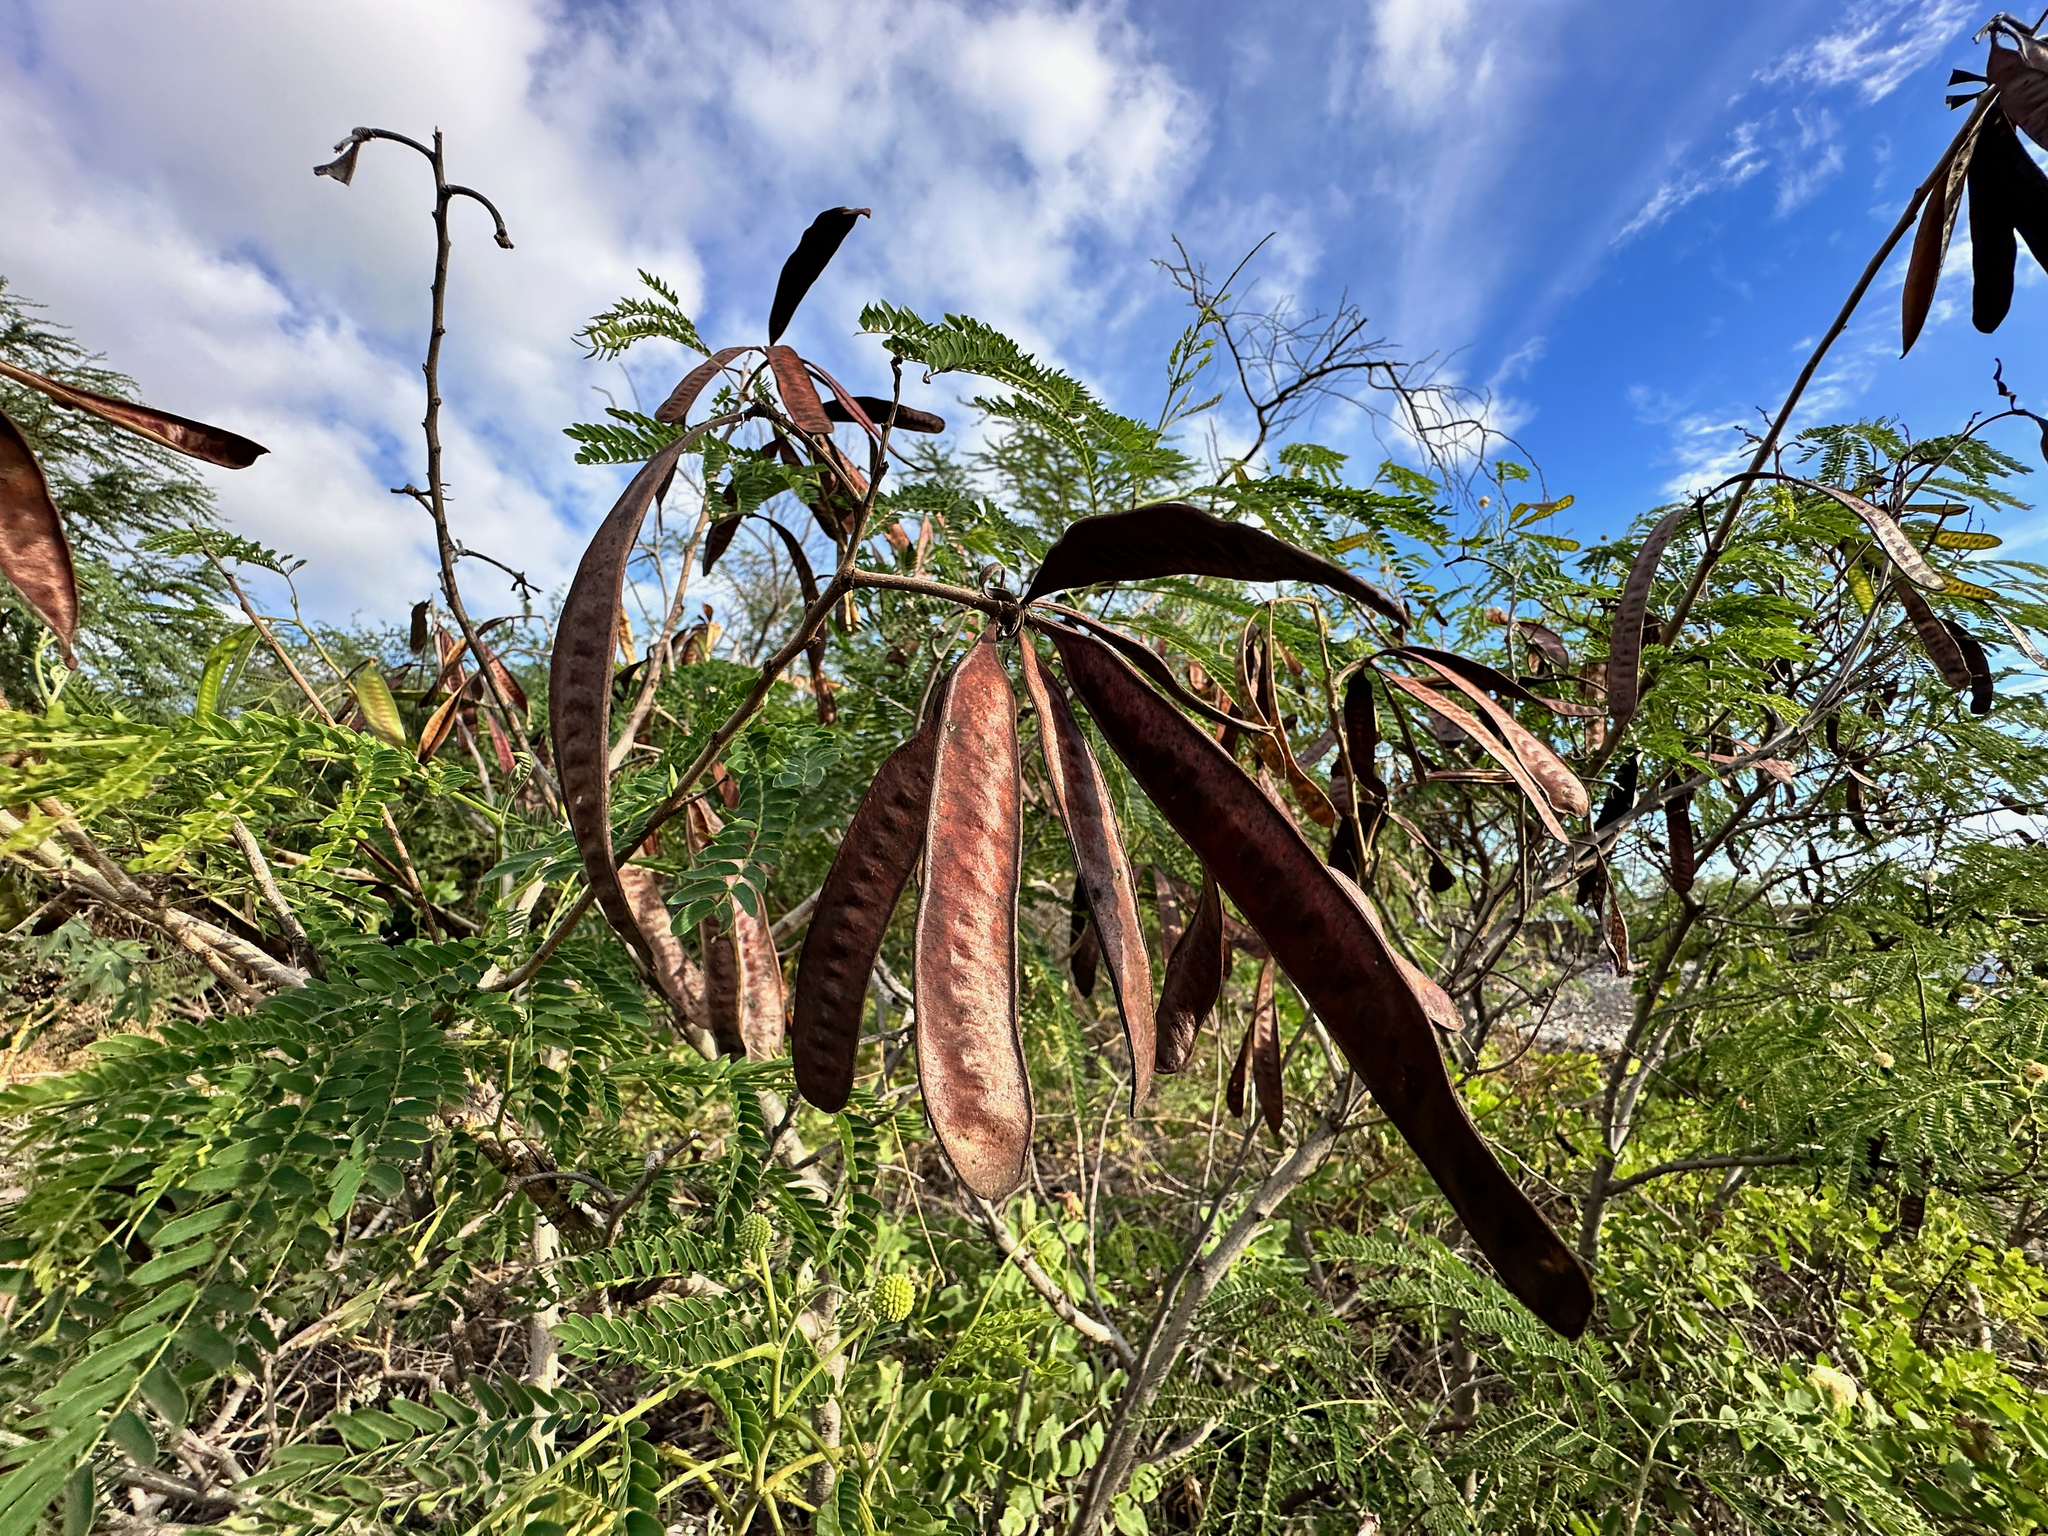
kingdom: Plantae
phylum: Tracheophyta
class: Magnoliopsida
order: Fabales
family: Fabaceae
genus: Leucaena
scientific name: Leucaena leucocephala
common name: White leadtree
